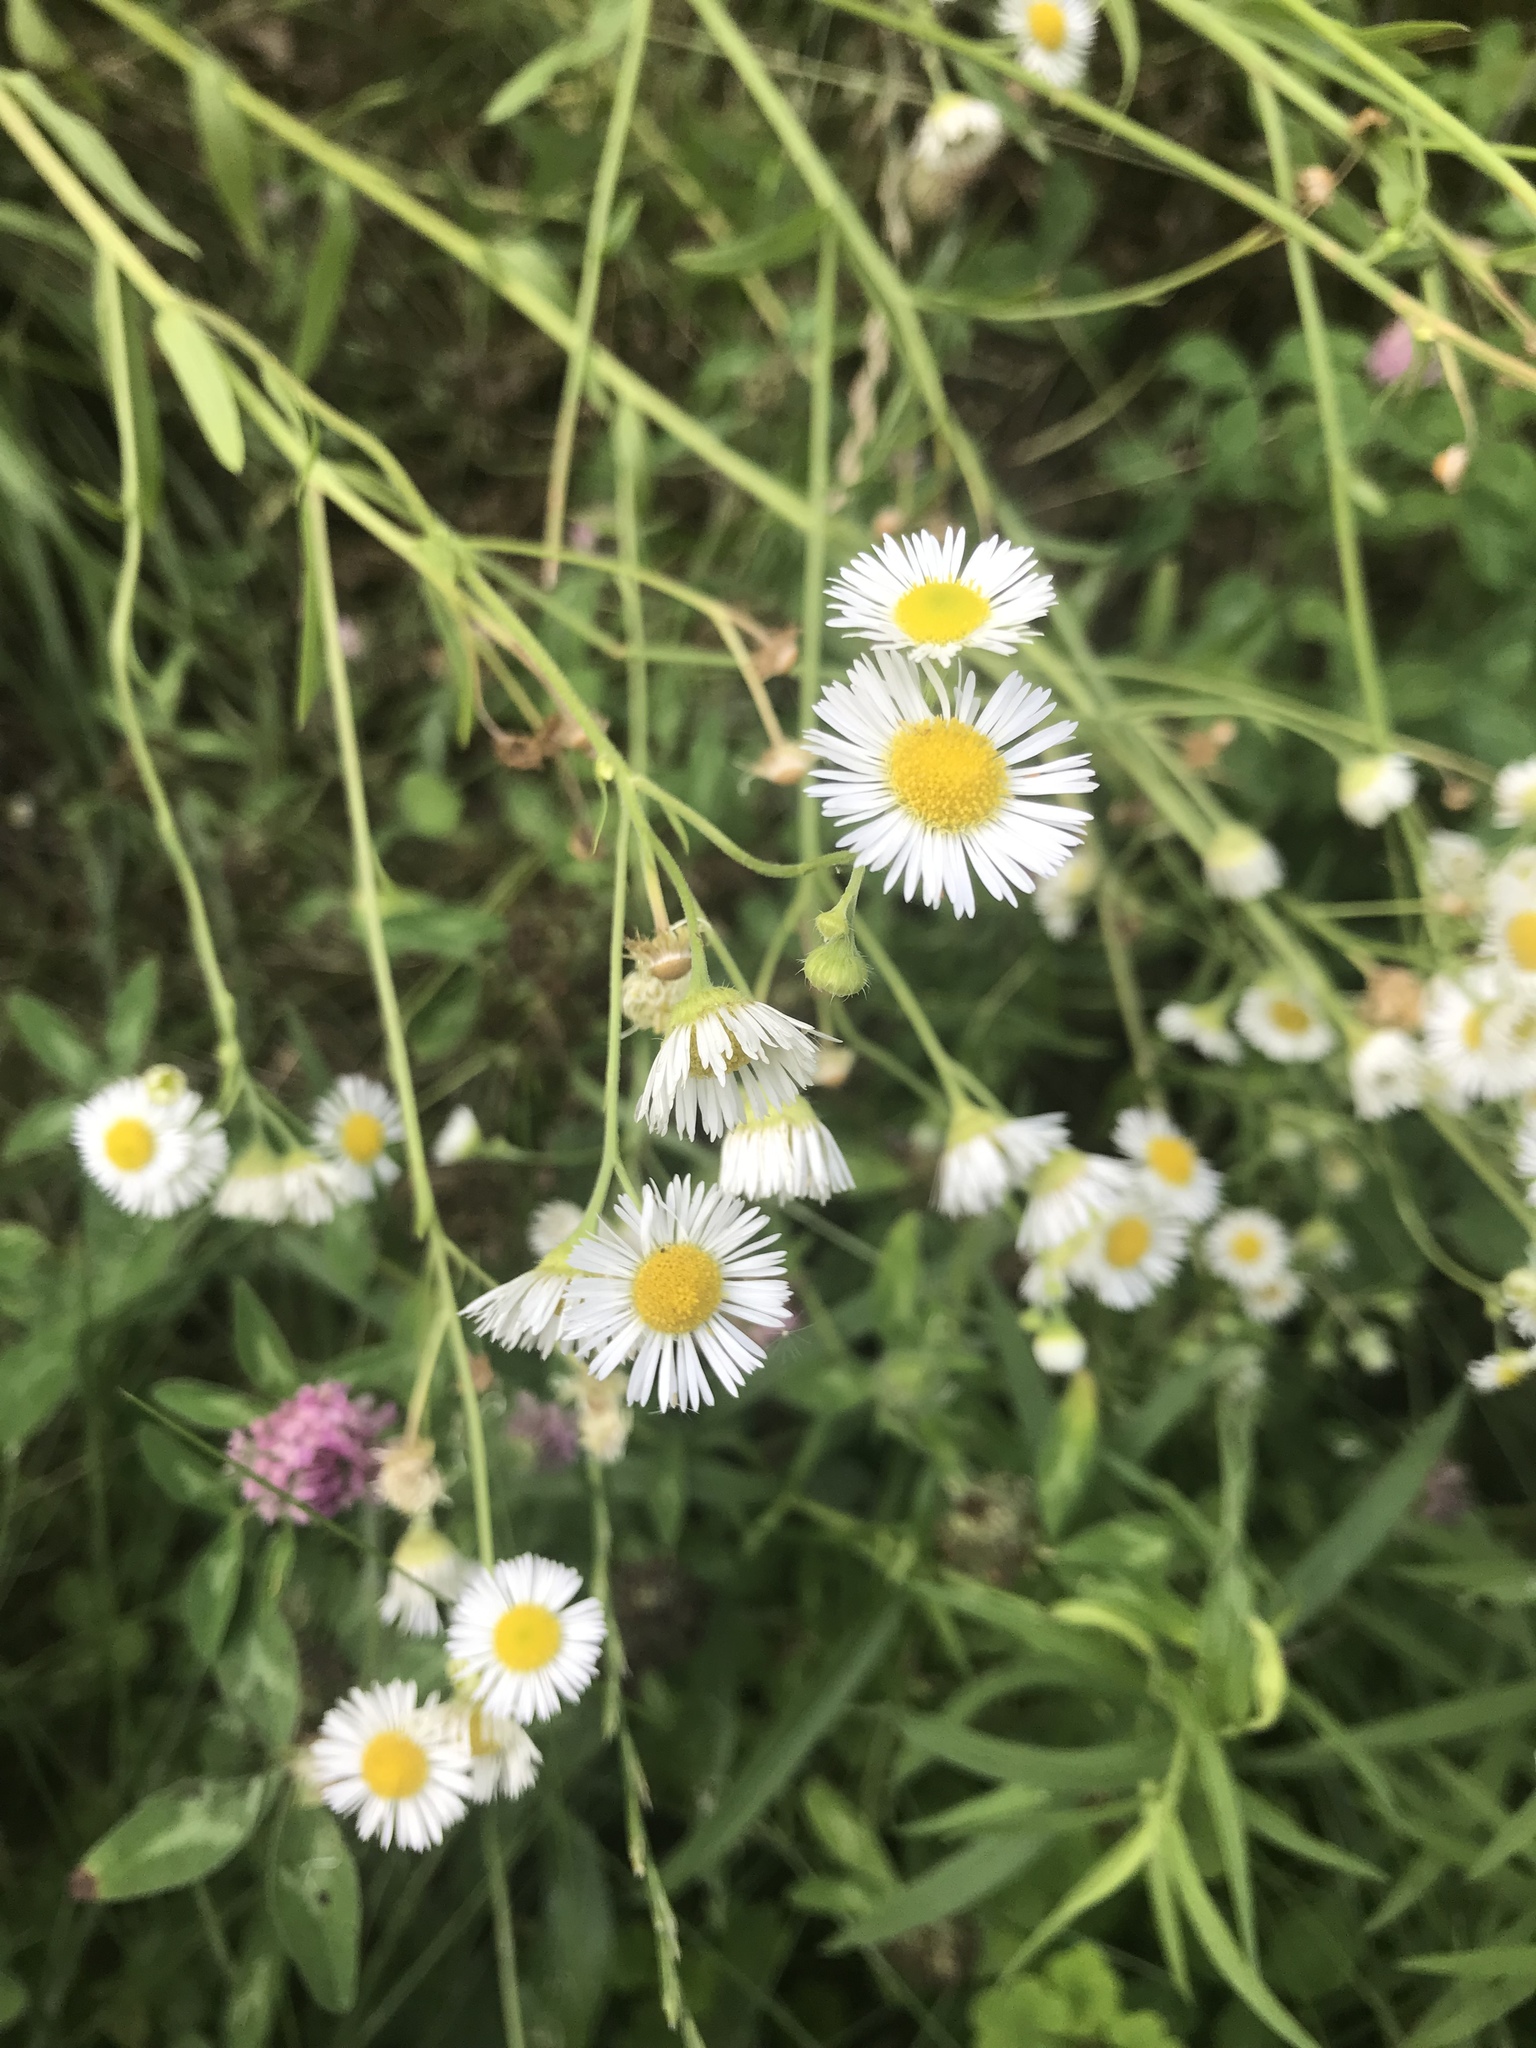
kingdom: Plantae
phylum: Tracheophyta
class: Magnoliopsida
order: Asterales
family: Asteraceae
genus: Erigeron
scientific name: Erigeron strigosus
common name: Common eastern fleabane
